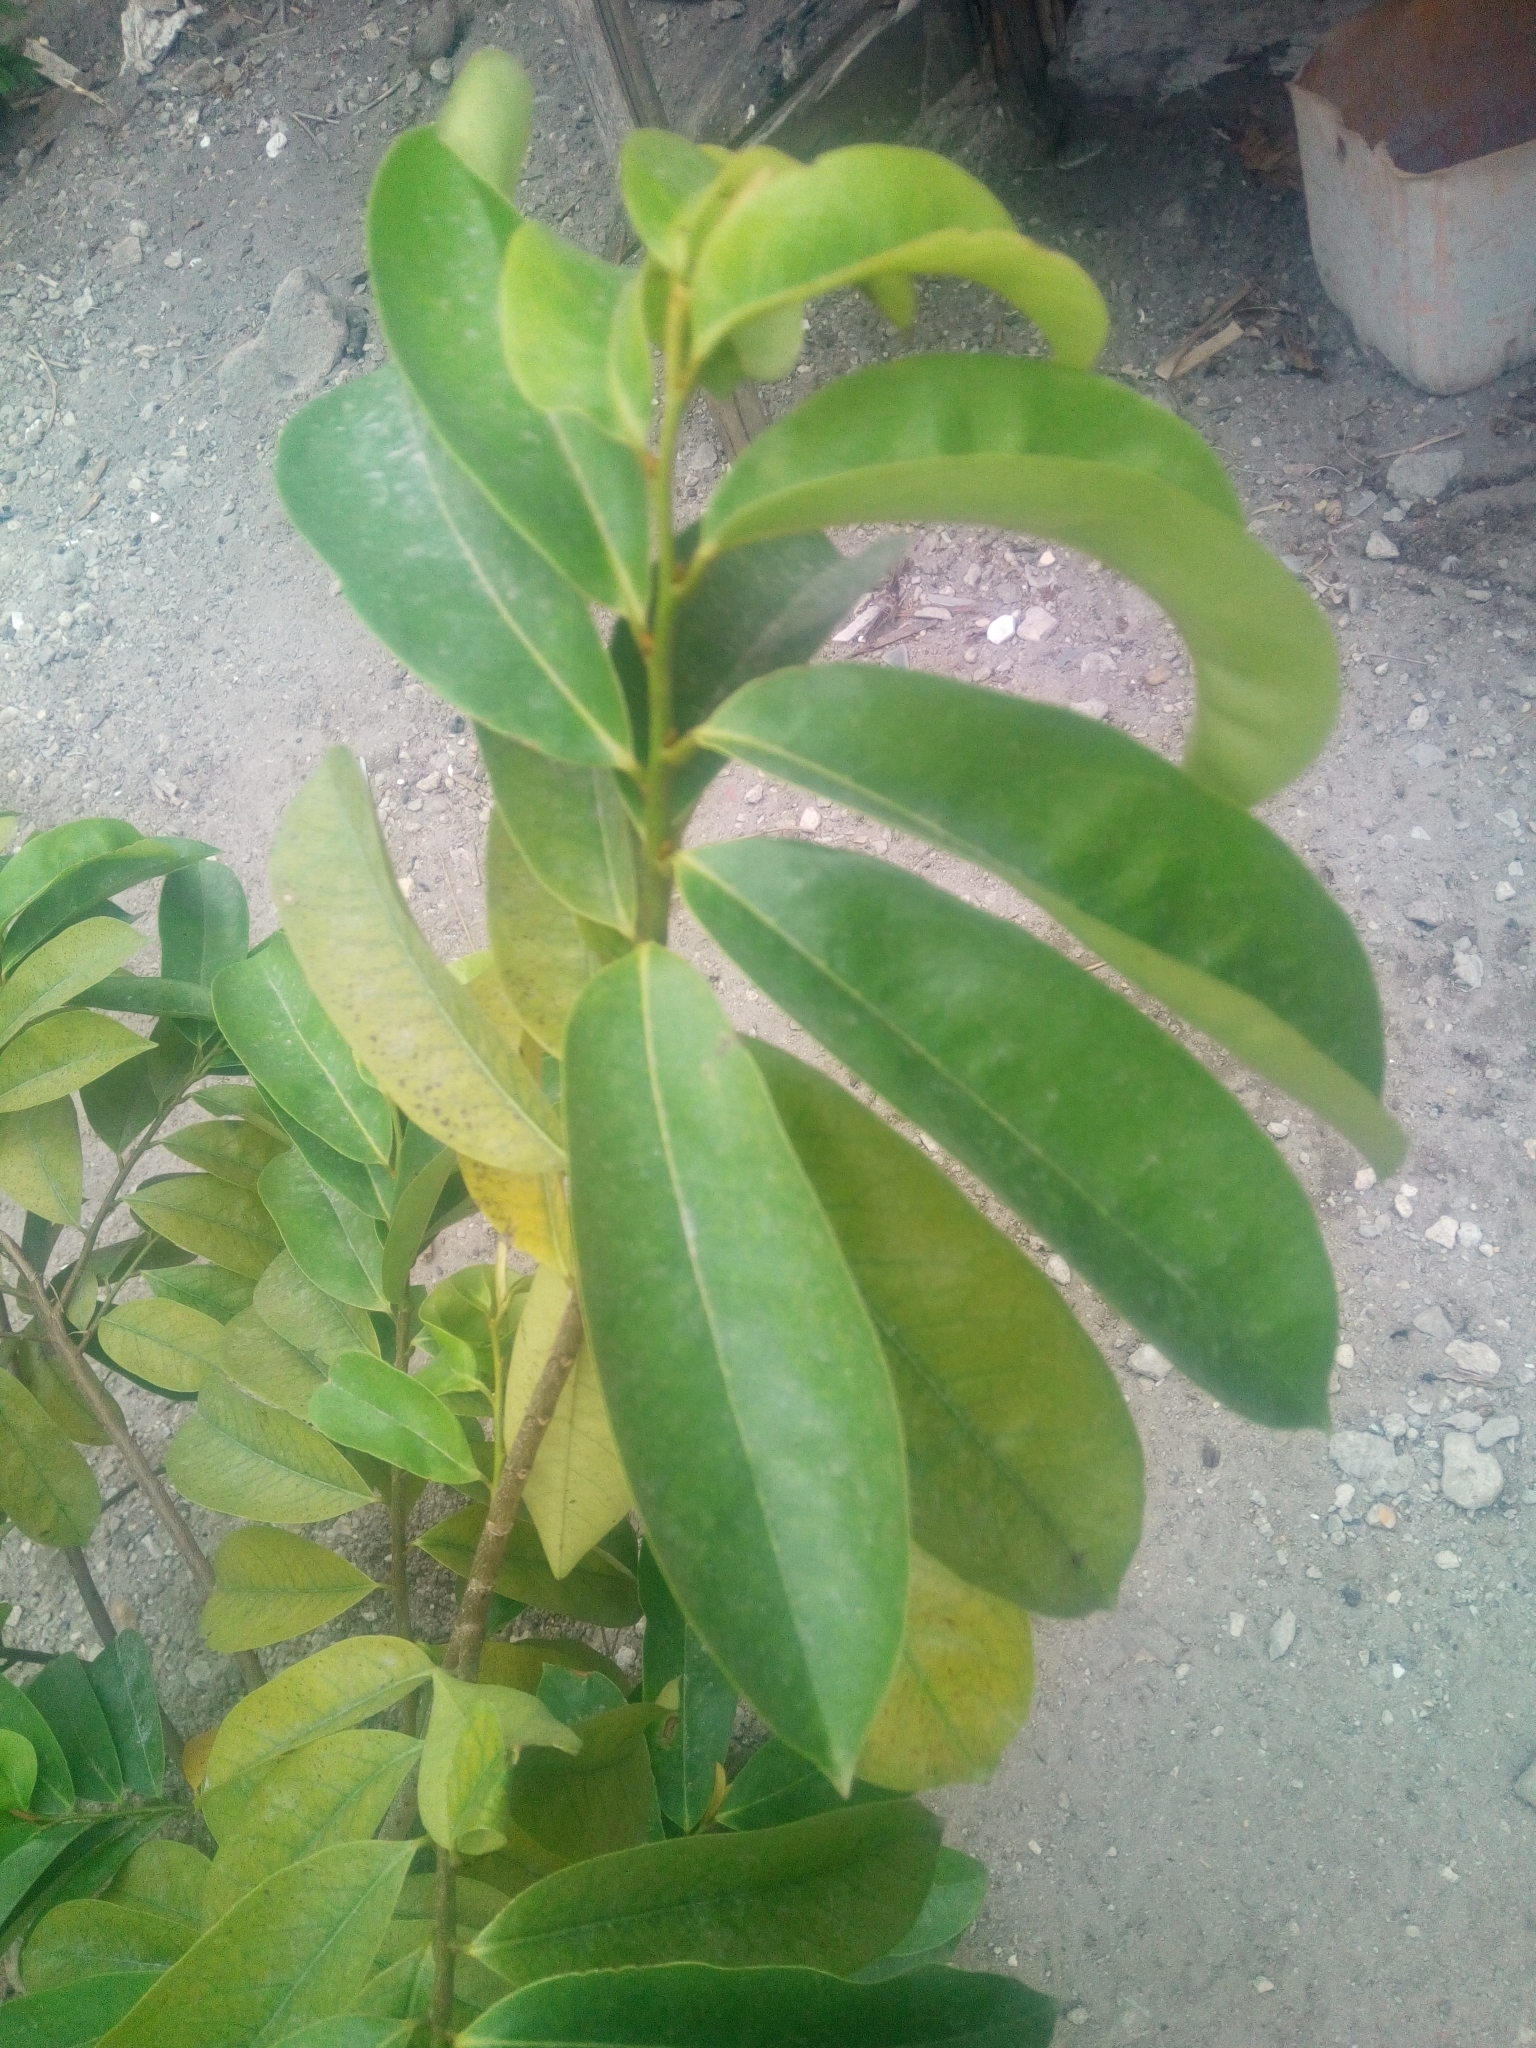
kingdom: Plantae
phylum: Tracheophyta
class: Magnoliopsida
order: Magnoliales
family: Annonaceae
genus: Annona
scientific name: Annona muricata
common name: Soursop
